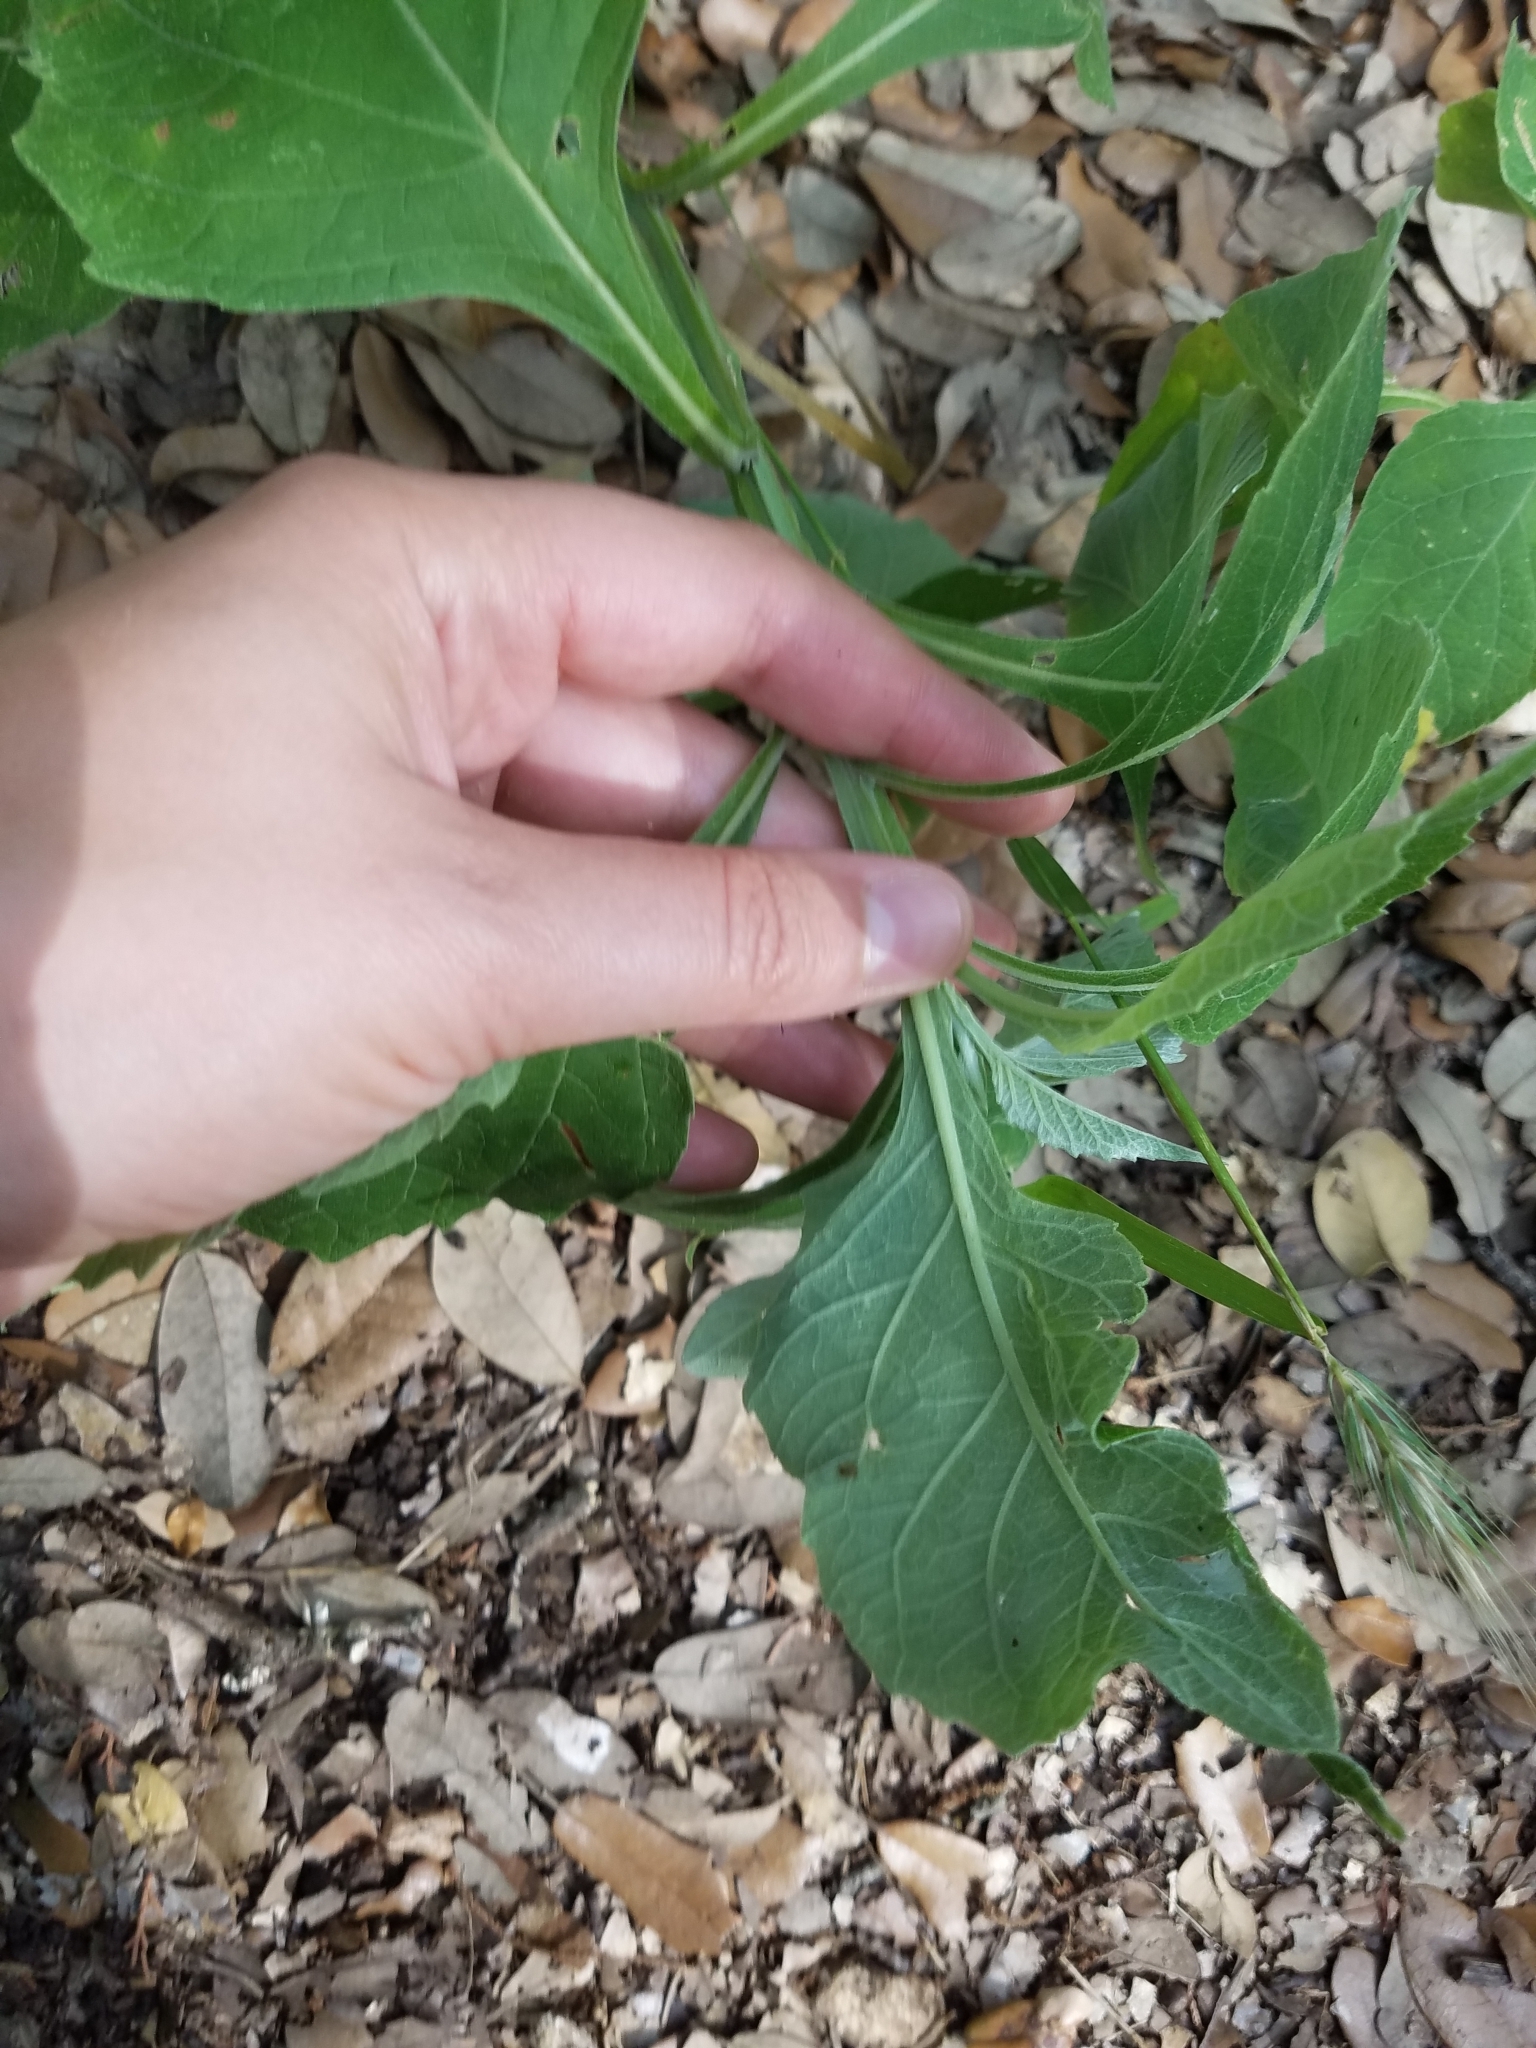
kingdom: Plantae
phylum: Tracheophyta
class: Magnoliopsida
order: Asterales
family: Asteraceae
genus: Verbesina
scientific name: Verbesina virginica
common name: Frostweed
